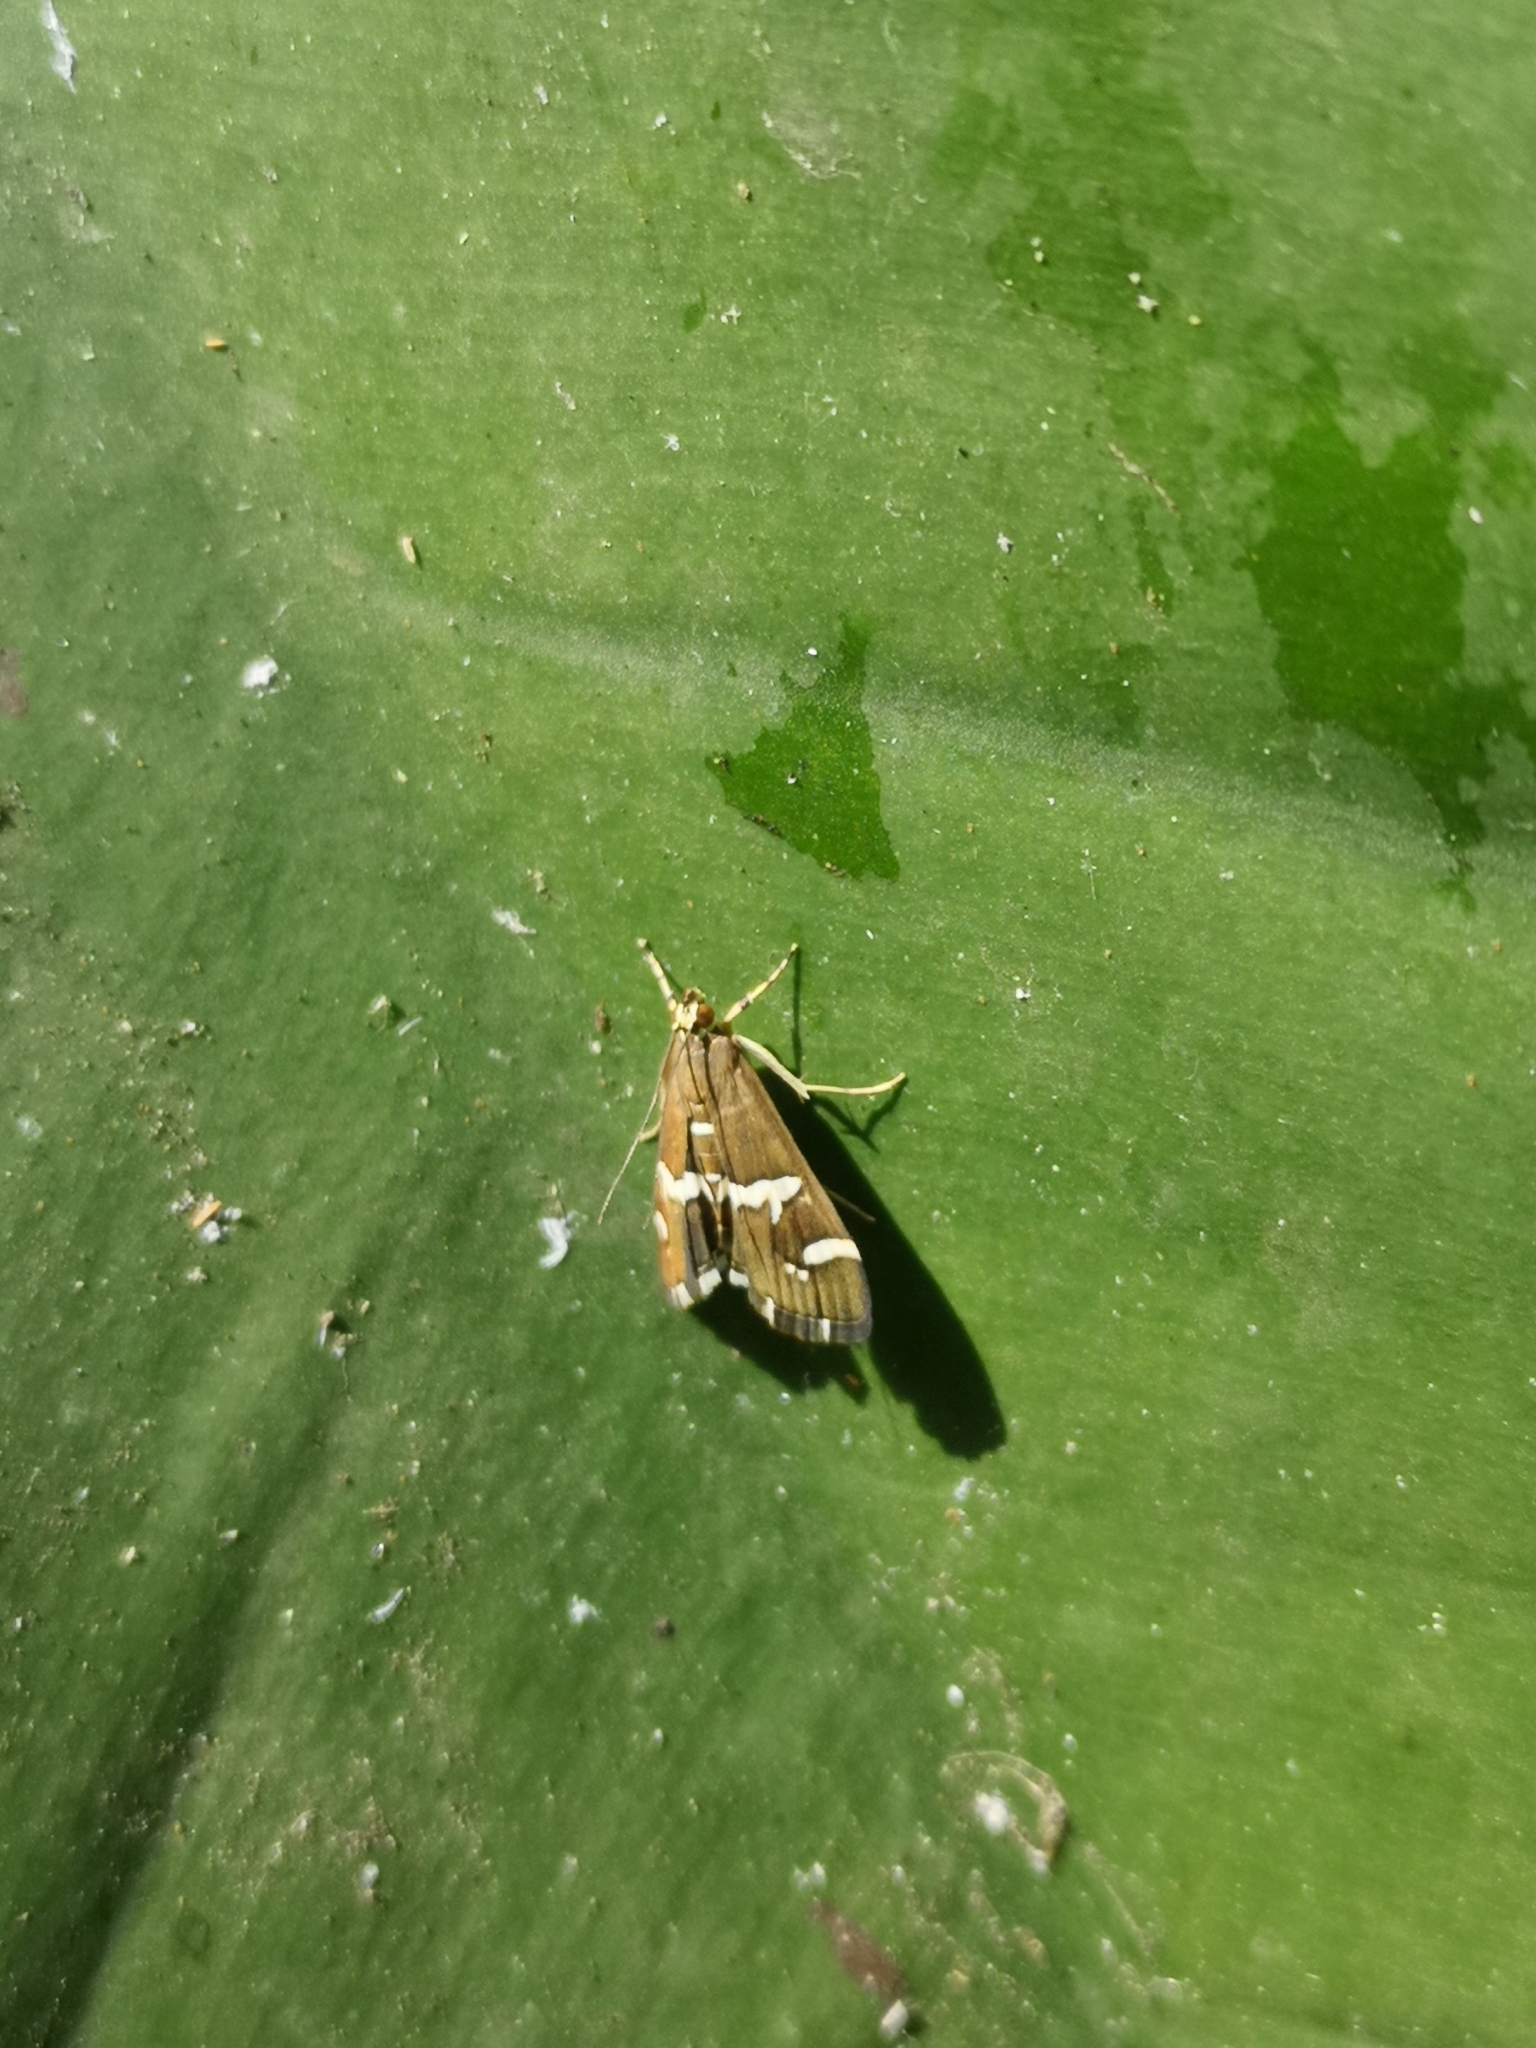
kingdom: Animalia
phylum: Arthropoda
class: Insecta
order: Lepidoptera
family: Crambidae
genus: Spoladea
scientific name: Spoladea recurvalis
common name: Beet webworm moth
